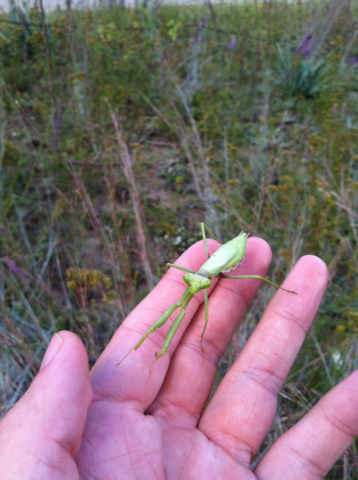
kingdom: Animalia
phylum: Arthropoda
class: Insecta
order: Mantodea
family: Mantidae
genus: Stagmomantis
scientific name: Stagmomantis carolina
